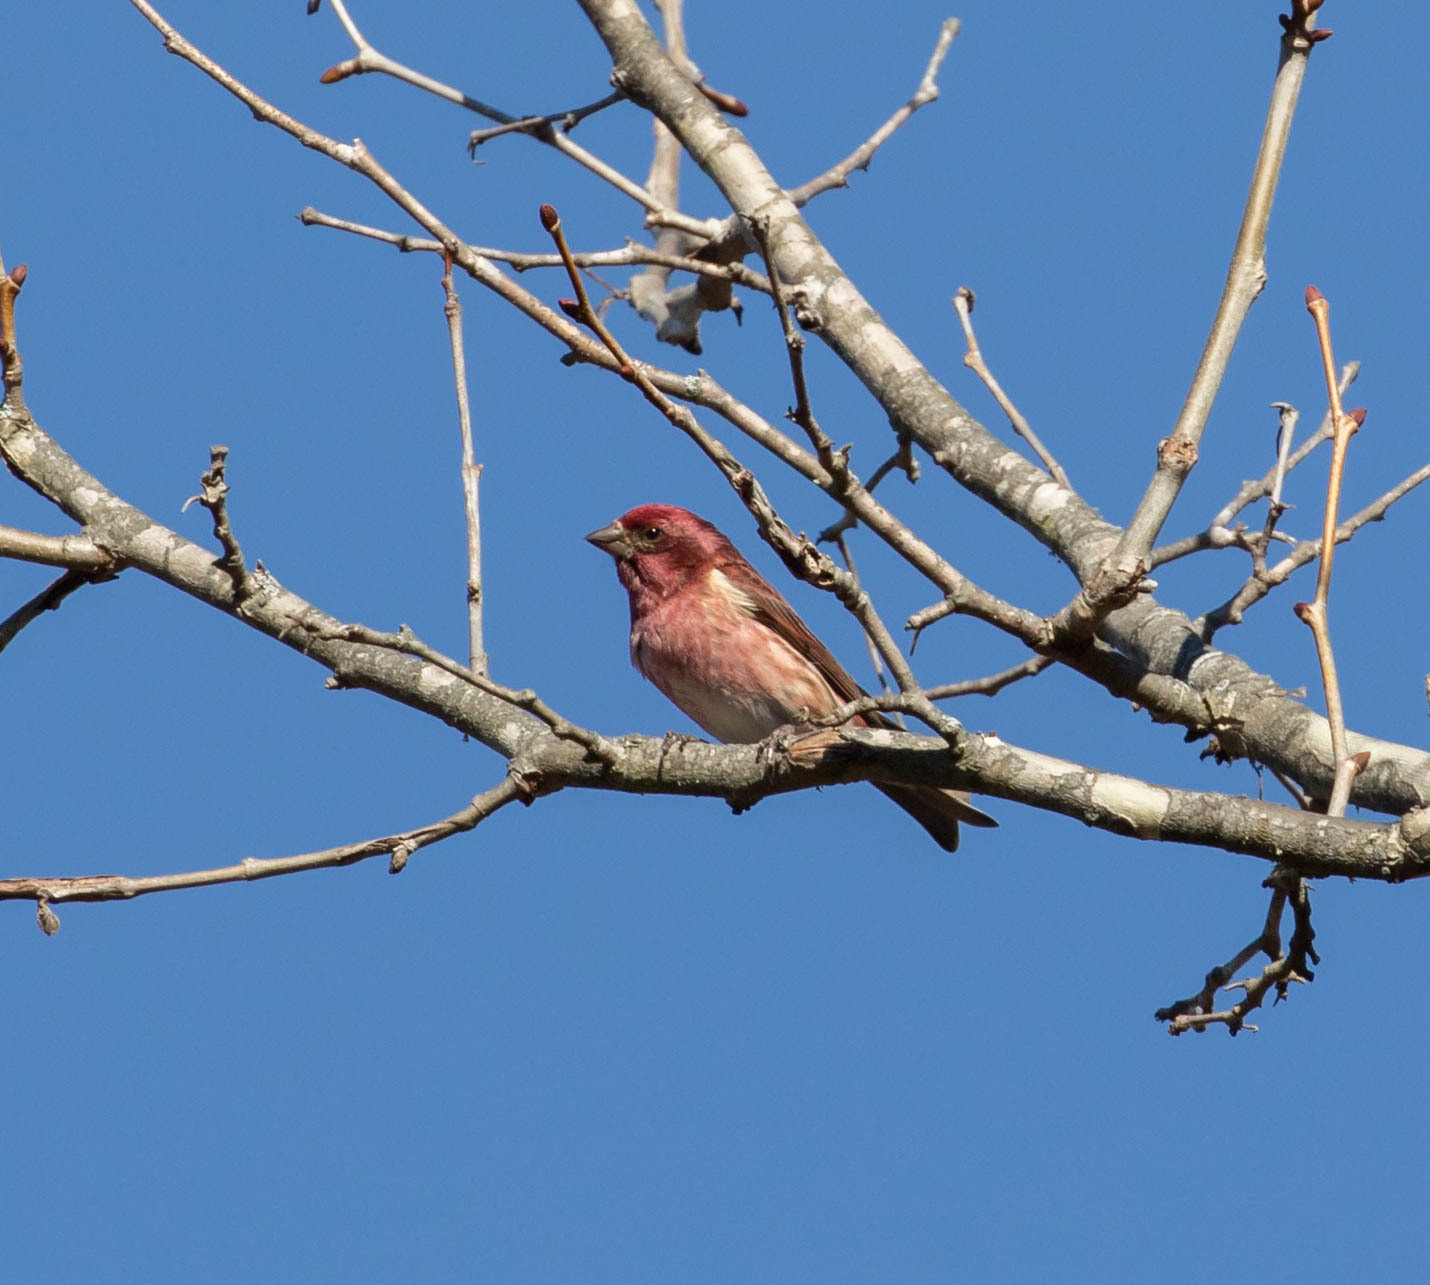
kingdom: Animalia
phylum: Chordata
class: Aves
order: Passeriformes
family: Fringillidae
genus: Haemorhous
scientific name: Haemorhous purpureus
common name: Purple finch
